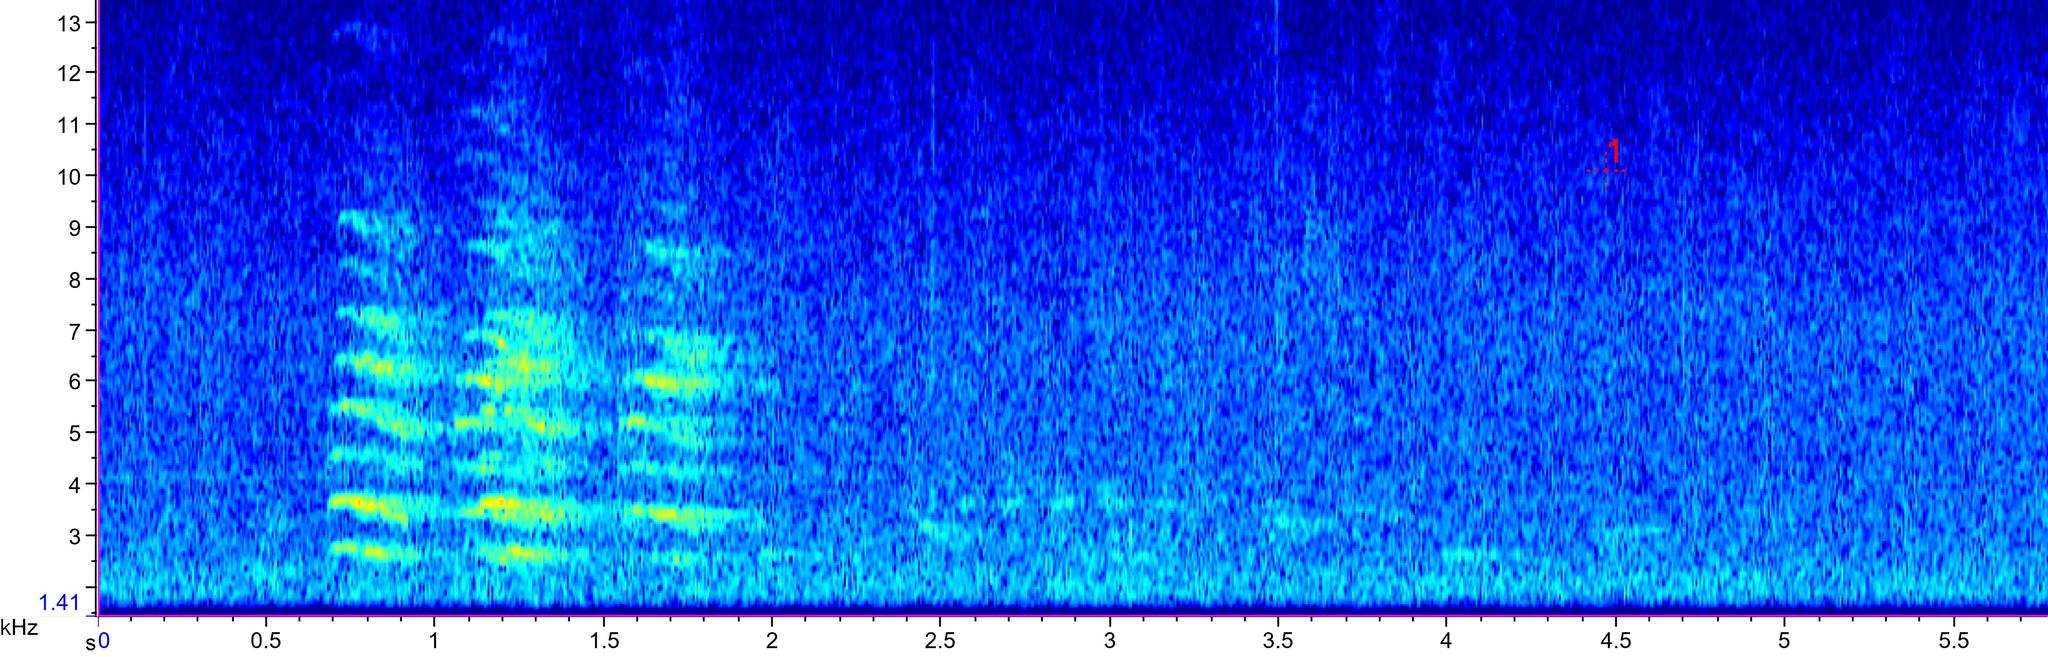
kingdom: Animalia
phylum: Chordata
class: Aves
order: Passeriformes
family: Corvidae
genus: Cyanocitta
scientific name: Cyanocitta cristata
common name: Blue jay
